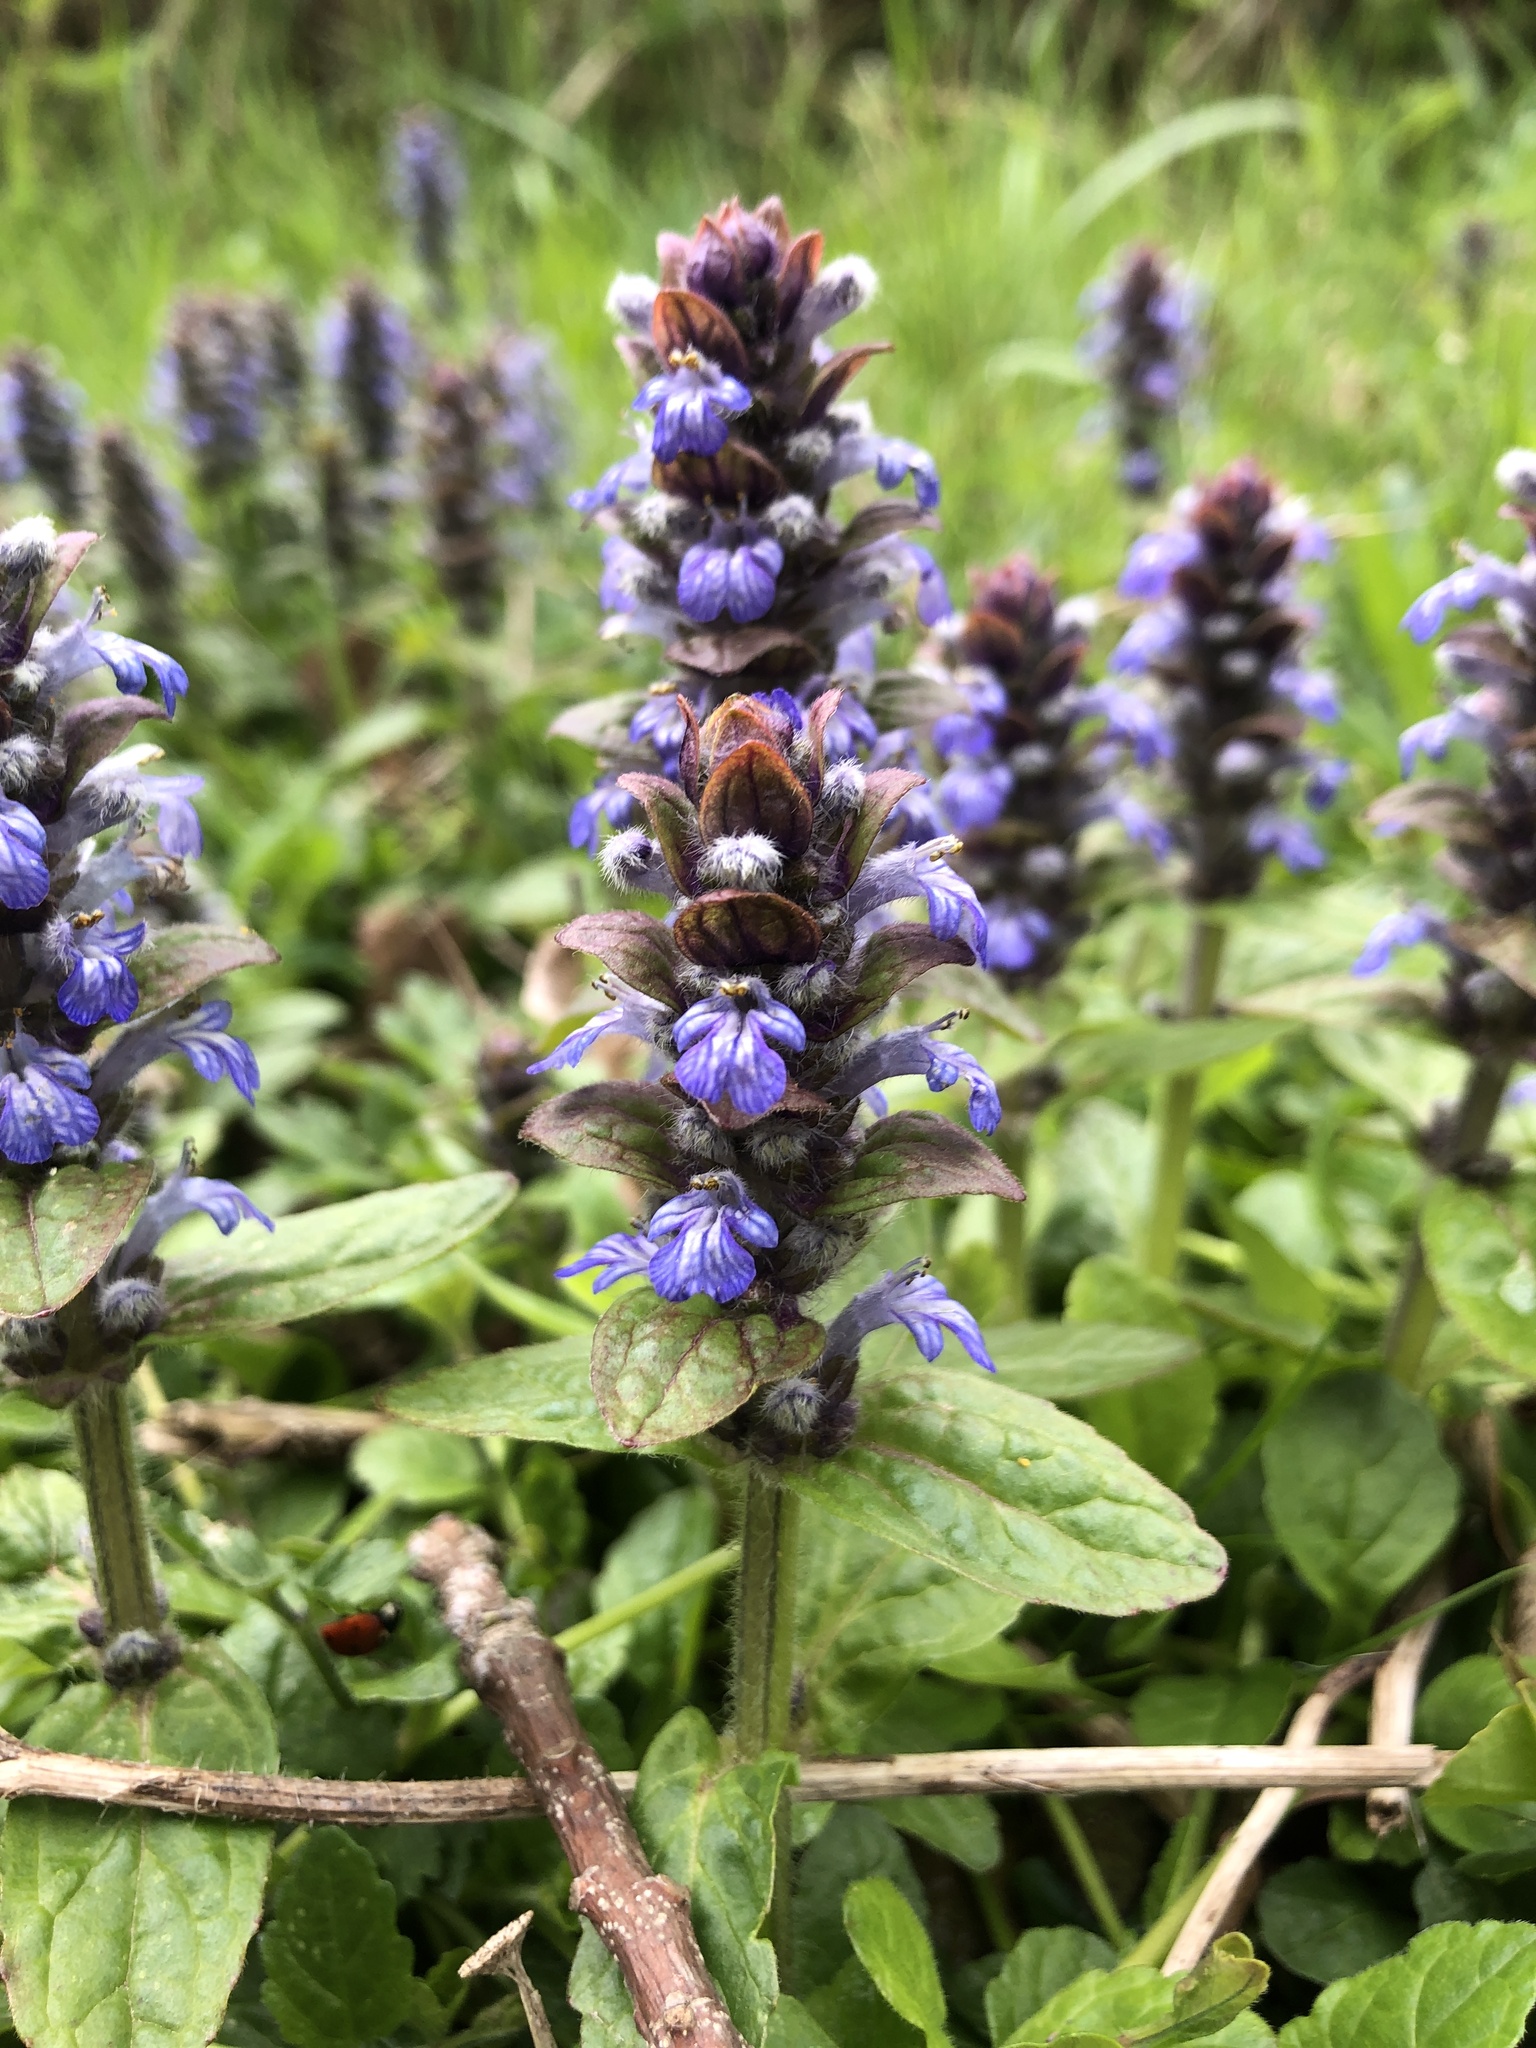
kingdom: Plantae
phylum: Tracheophyta
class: Magnoliopsida
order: Lamiales
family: Lamiaceae
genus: Ajuga
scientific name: Ajuga reptans
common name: Bugle
